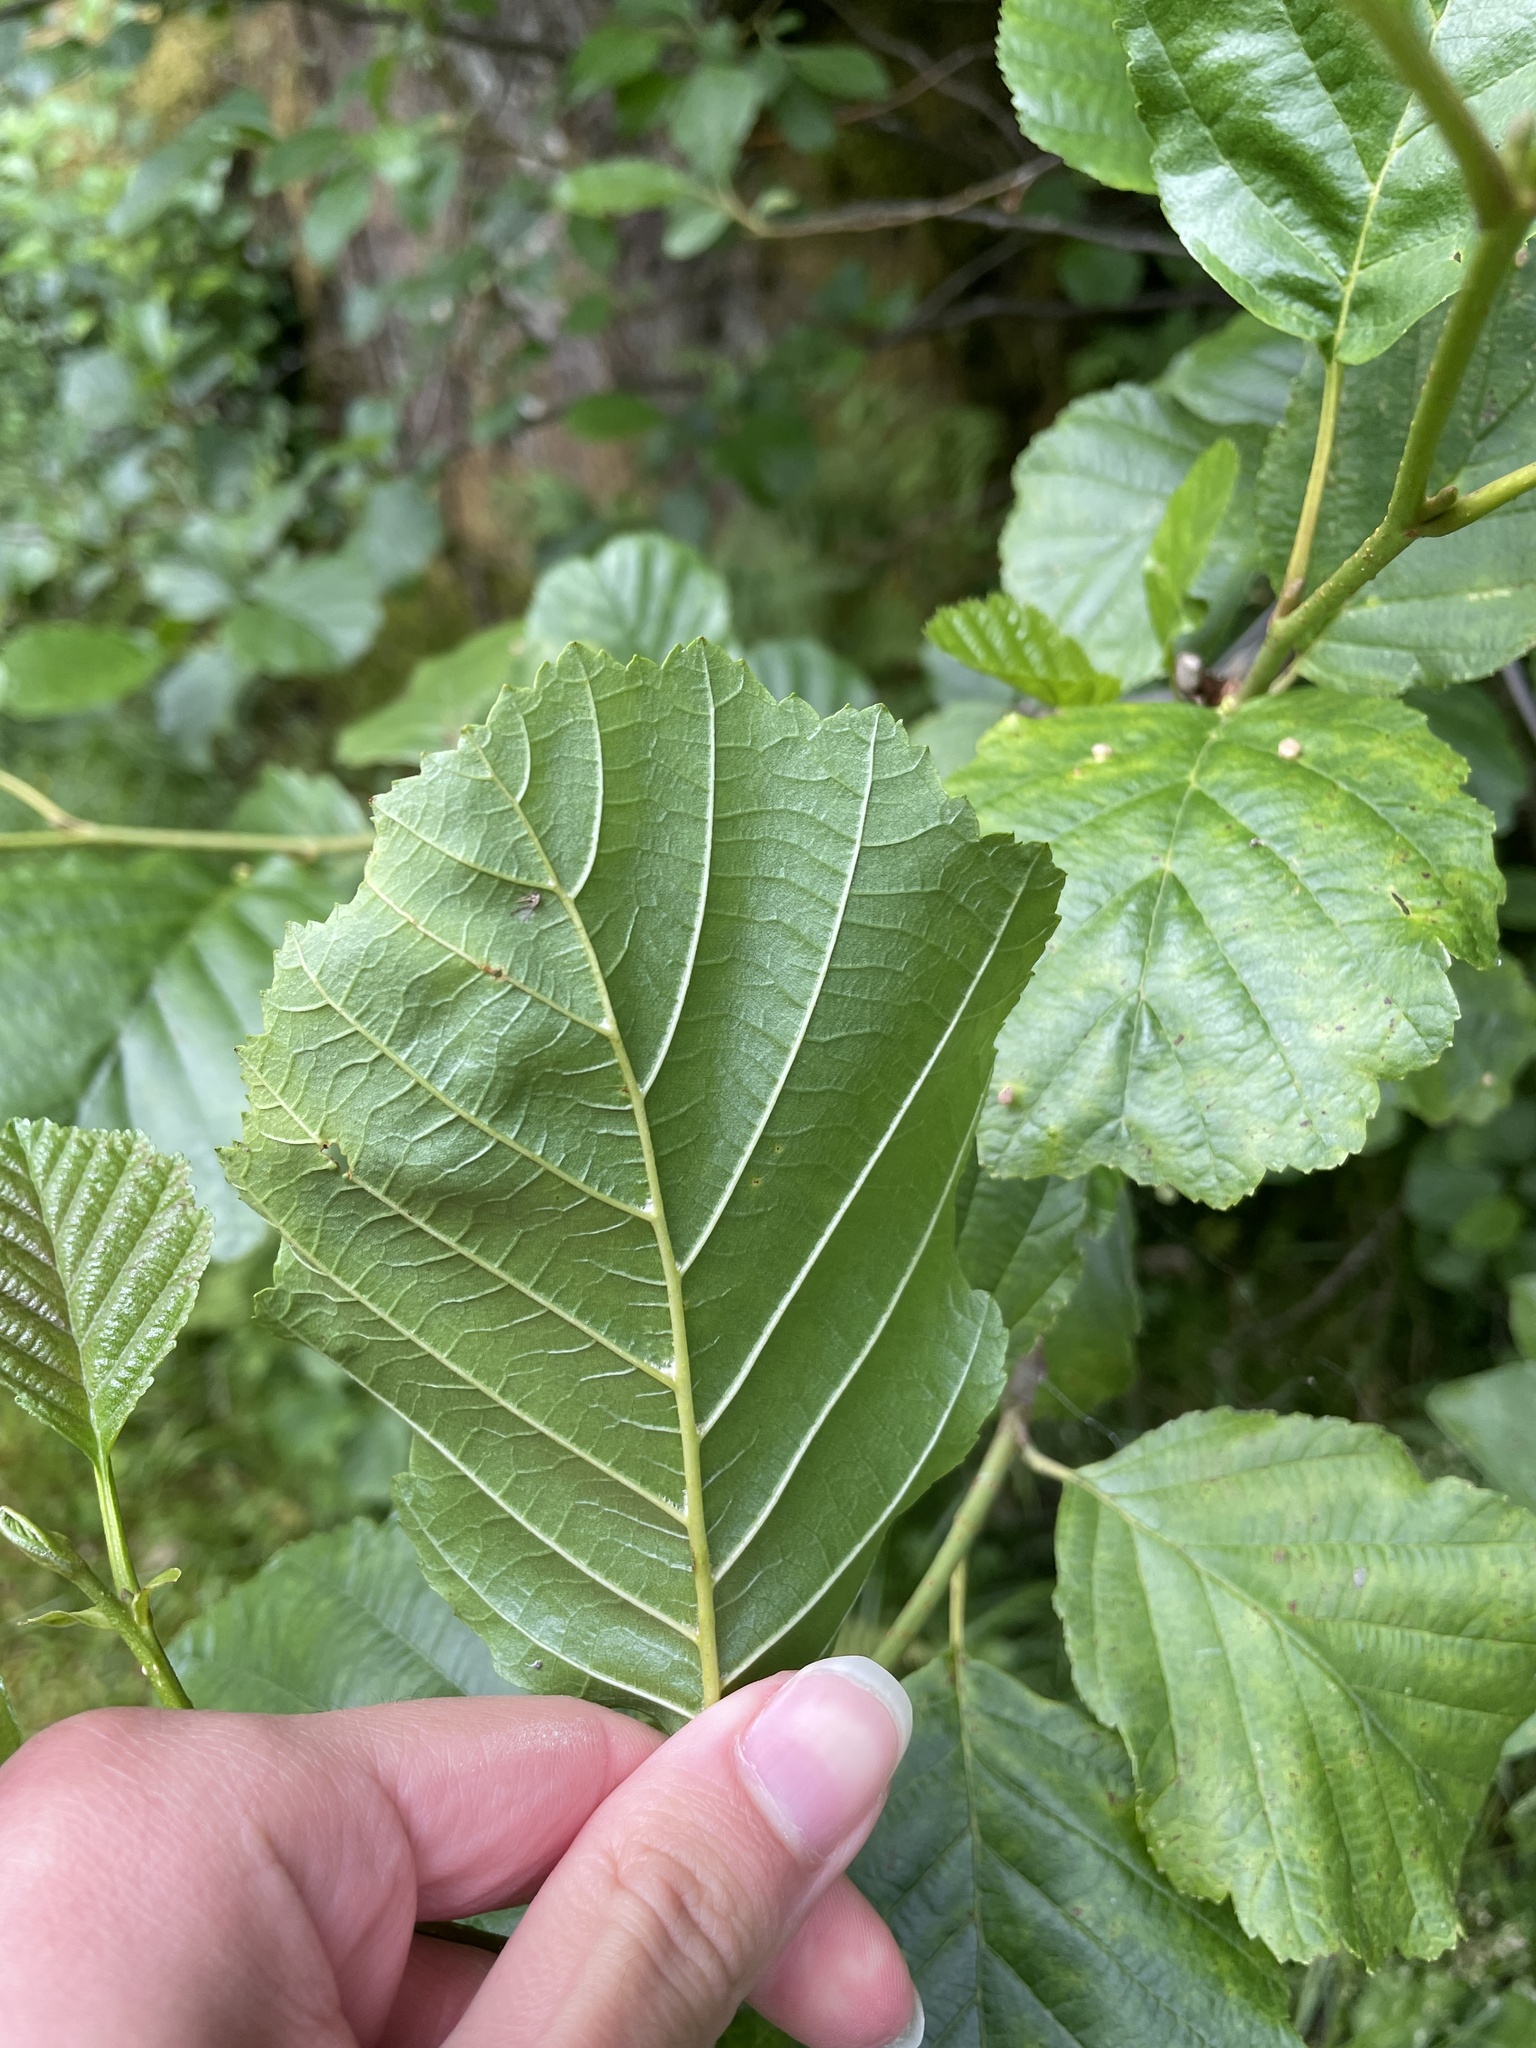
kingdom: Plantae
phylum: Tracheophyta
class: Magnoliopsida
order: Fagales
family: Betulaceae
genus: Alnus
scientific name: Alnus glutinosa
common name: Black alder
